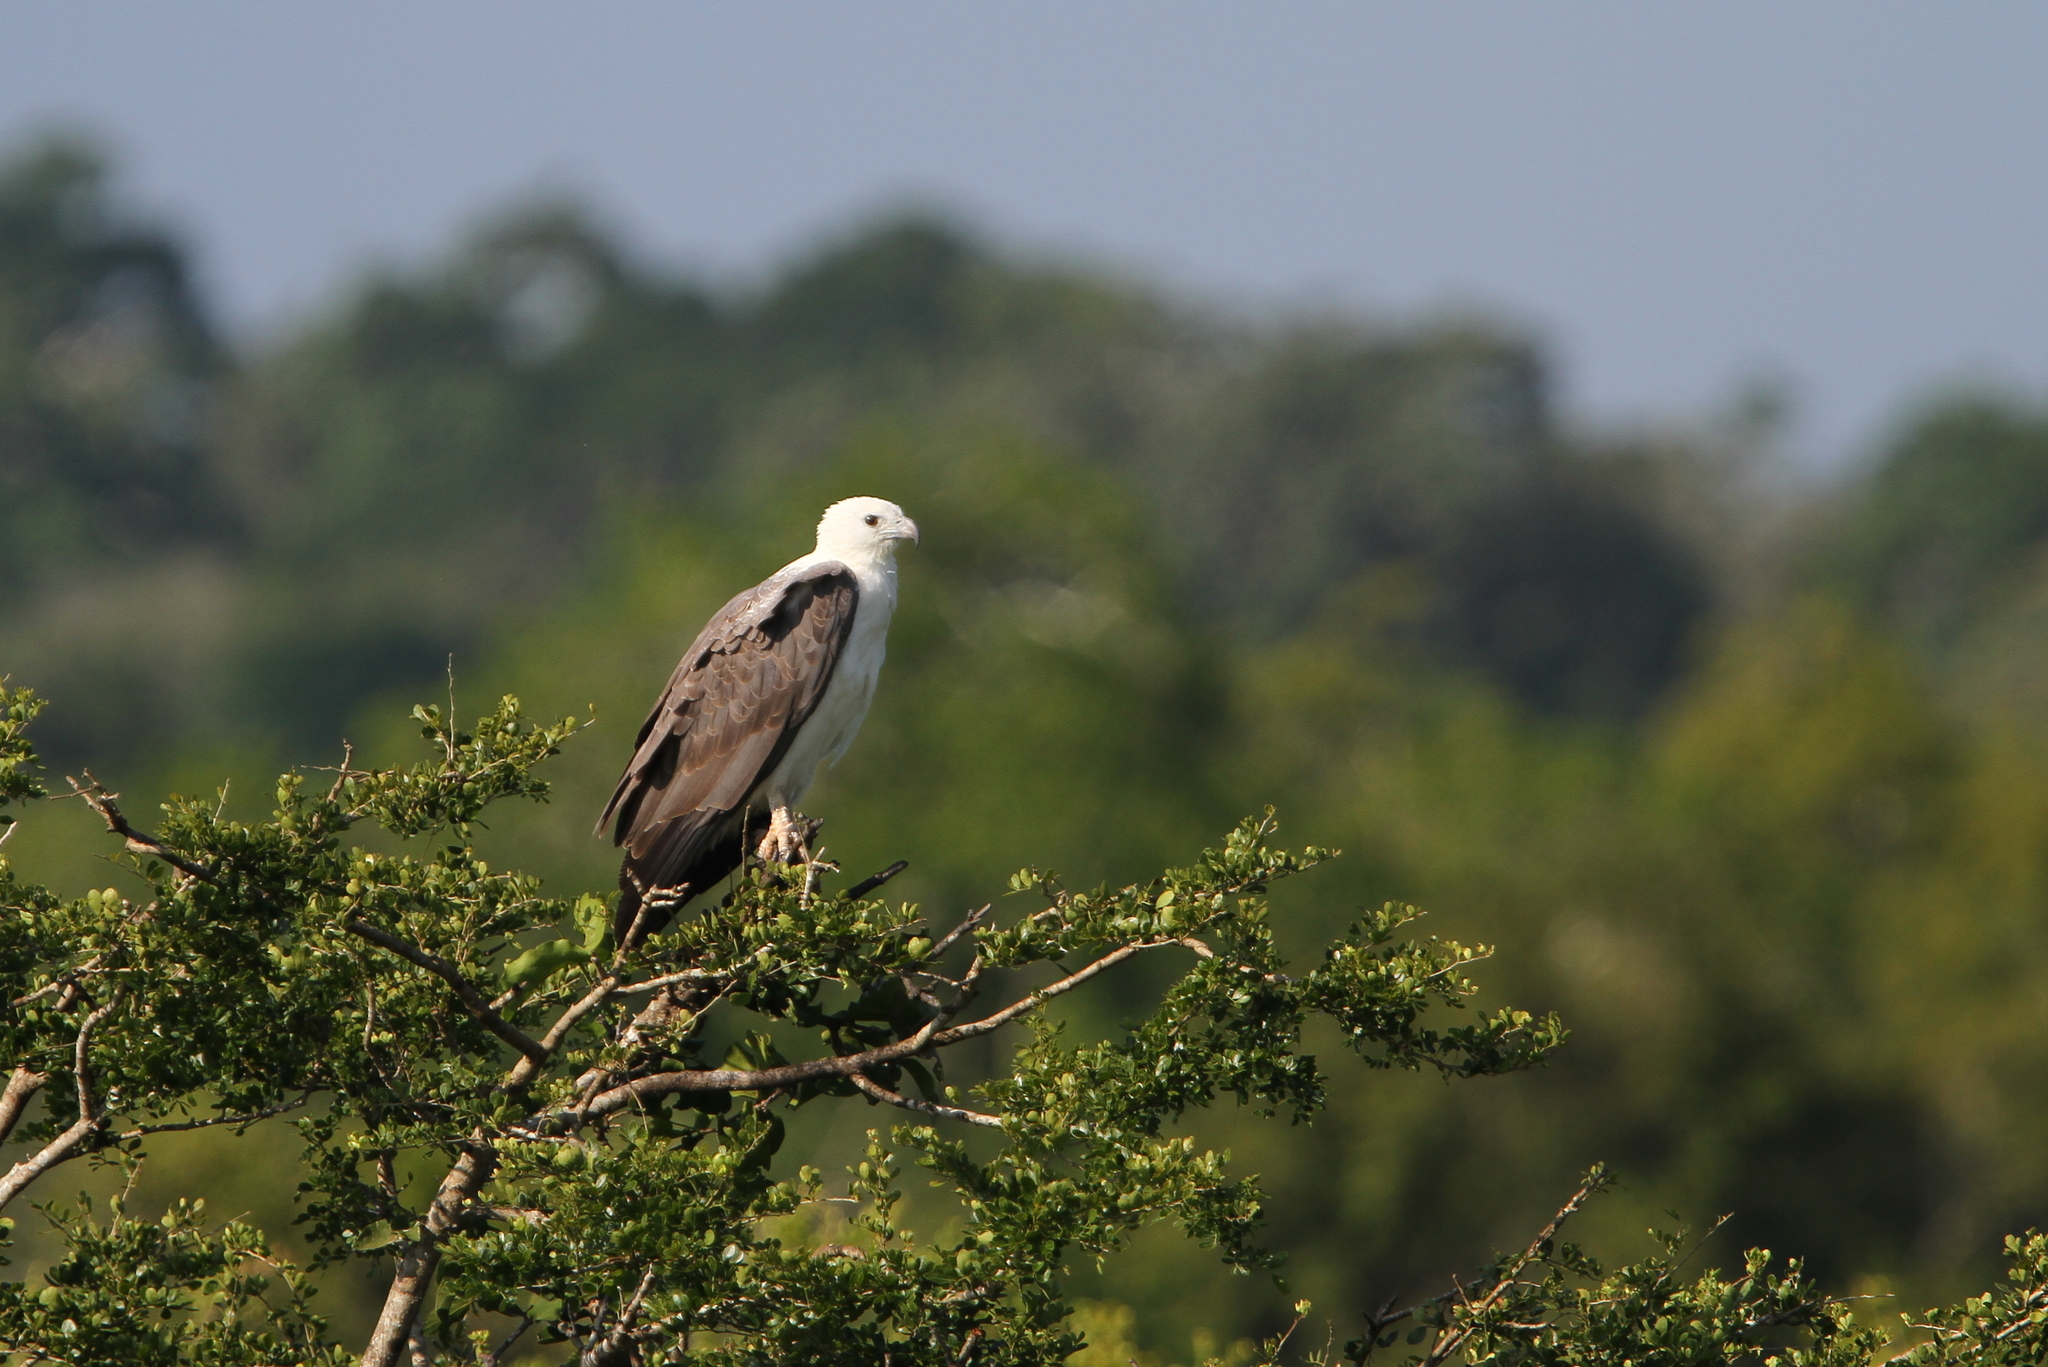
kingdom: Animalia
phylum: Chordata
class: Aves
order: Accipitriformes
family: Accipitridae
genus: Haliaeetus
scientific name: Haliaeetus leucogaster
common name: White-bellied sea eagle
